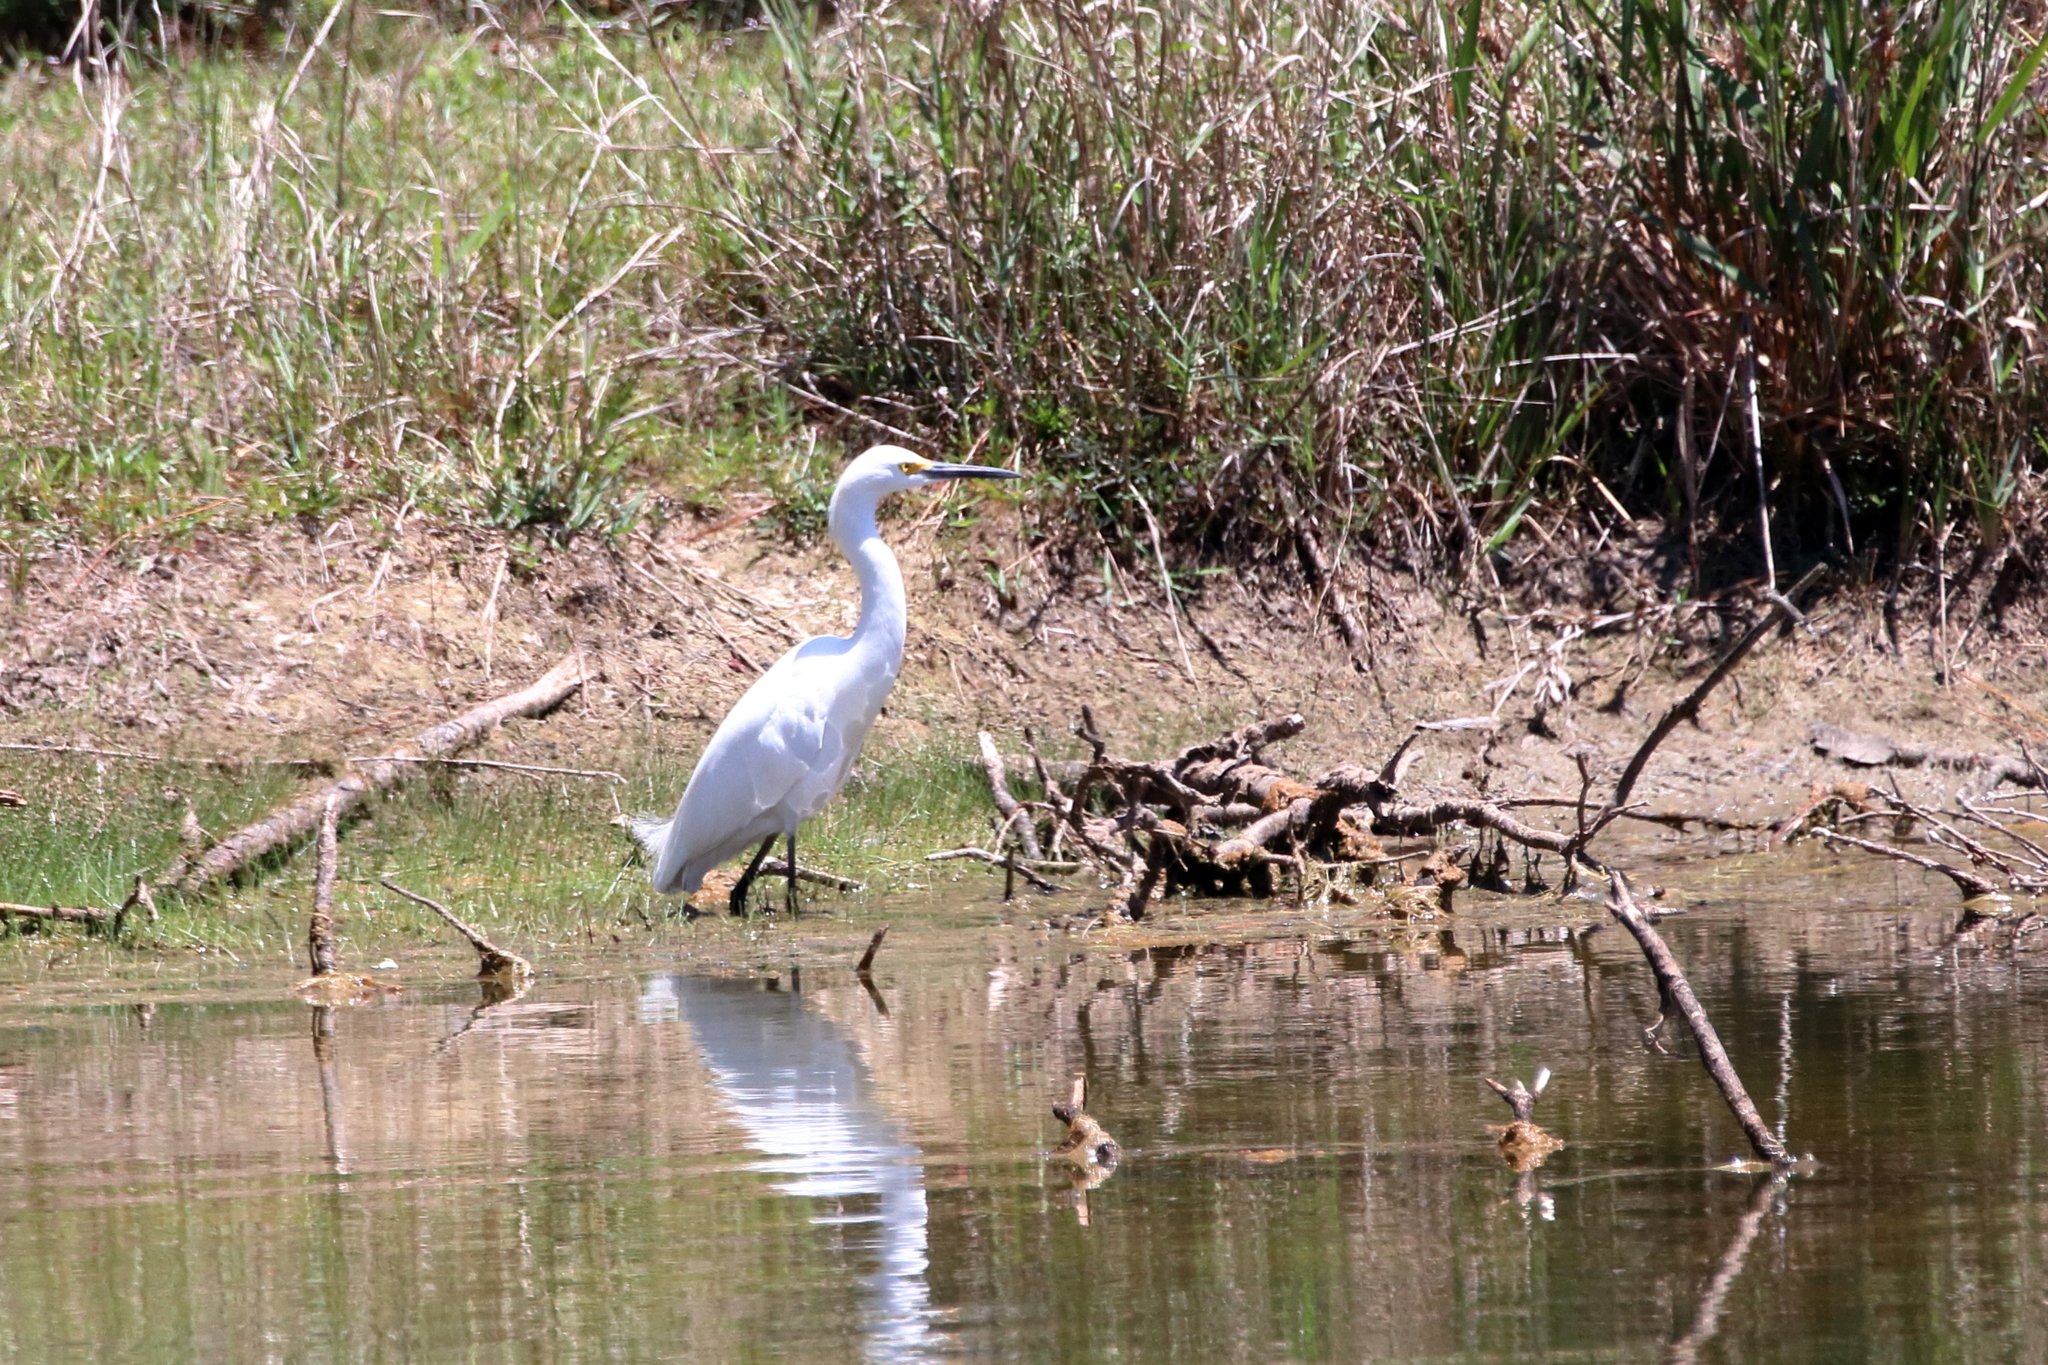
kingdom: Animalia
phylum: Chordata
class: Aves
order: Pelecaniformes
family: Ardeidae
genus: Egretta
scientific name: Egretta thula
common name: Snowy egret
